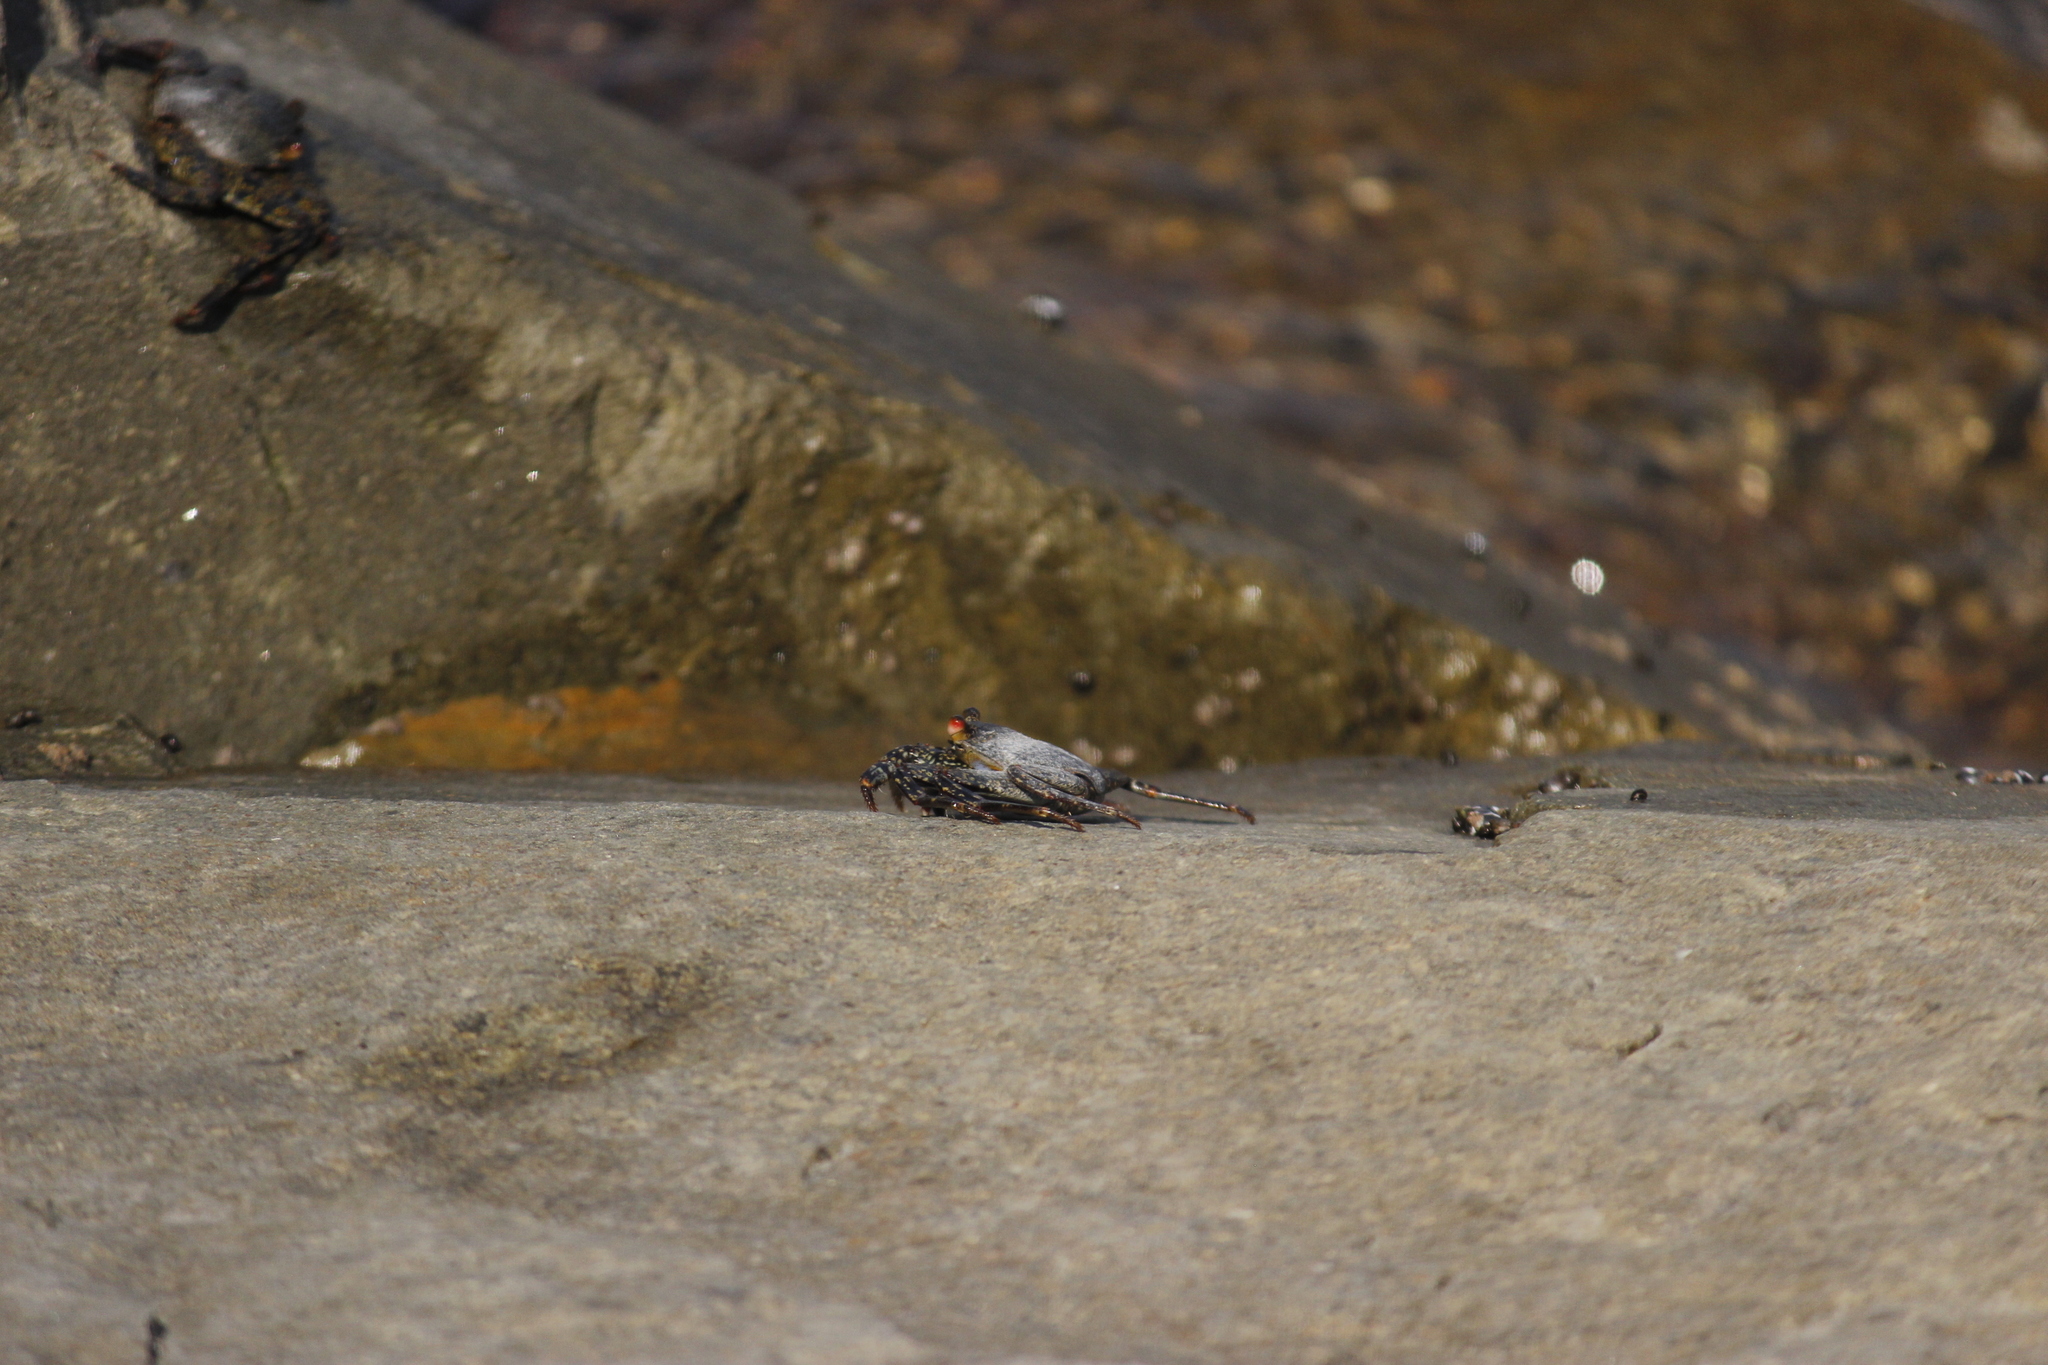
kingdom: Animalia
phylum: Arthropoda
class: Malacostraca
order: Decapoda
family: Grapsidae
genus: Grapsus
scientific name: Grapsus grapsus
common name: Sally lightfoot
